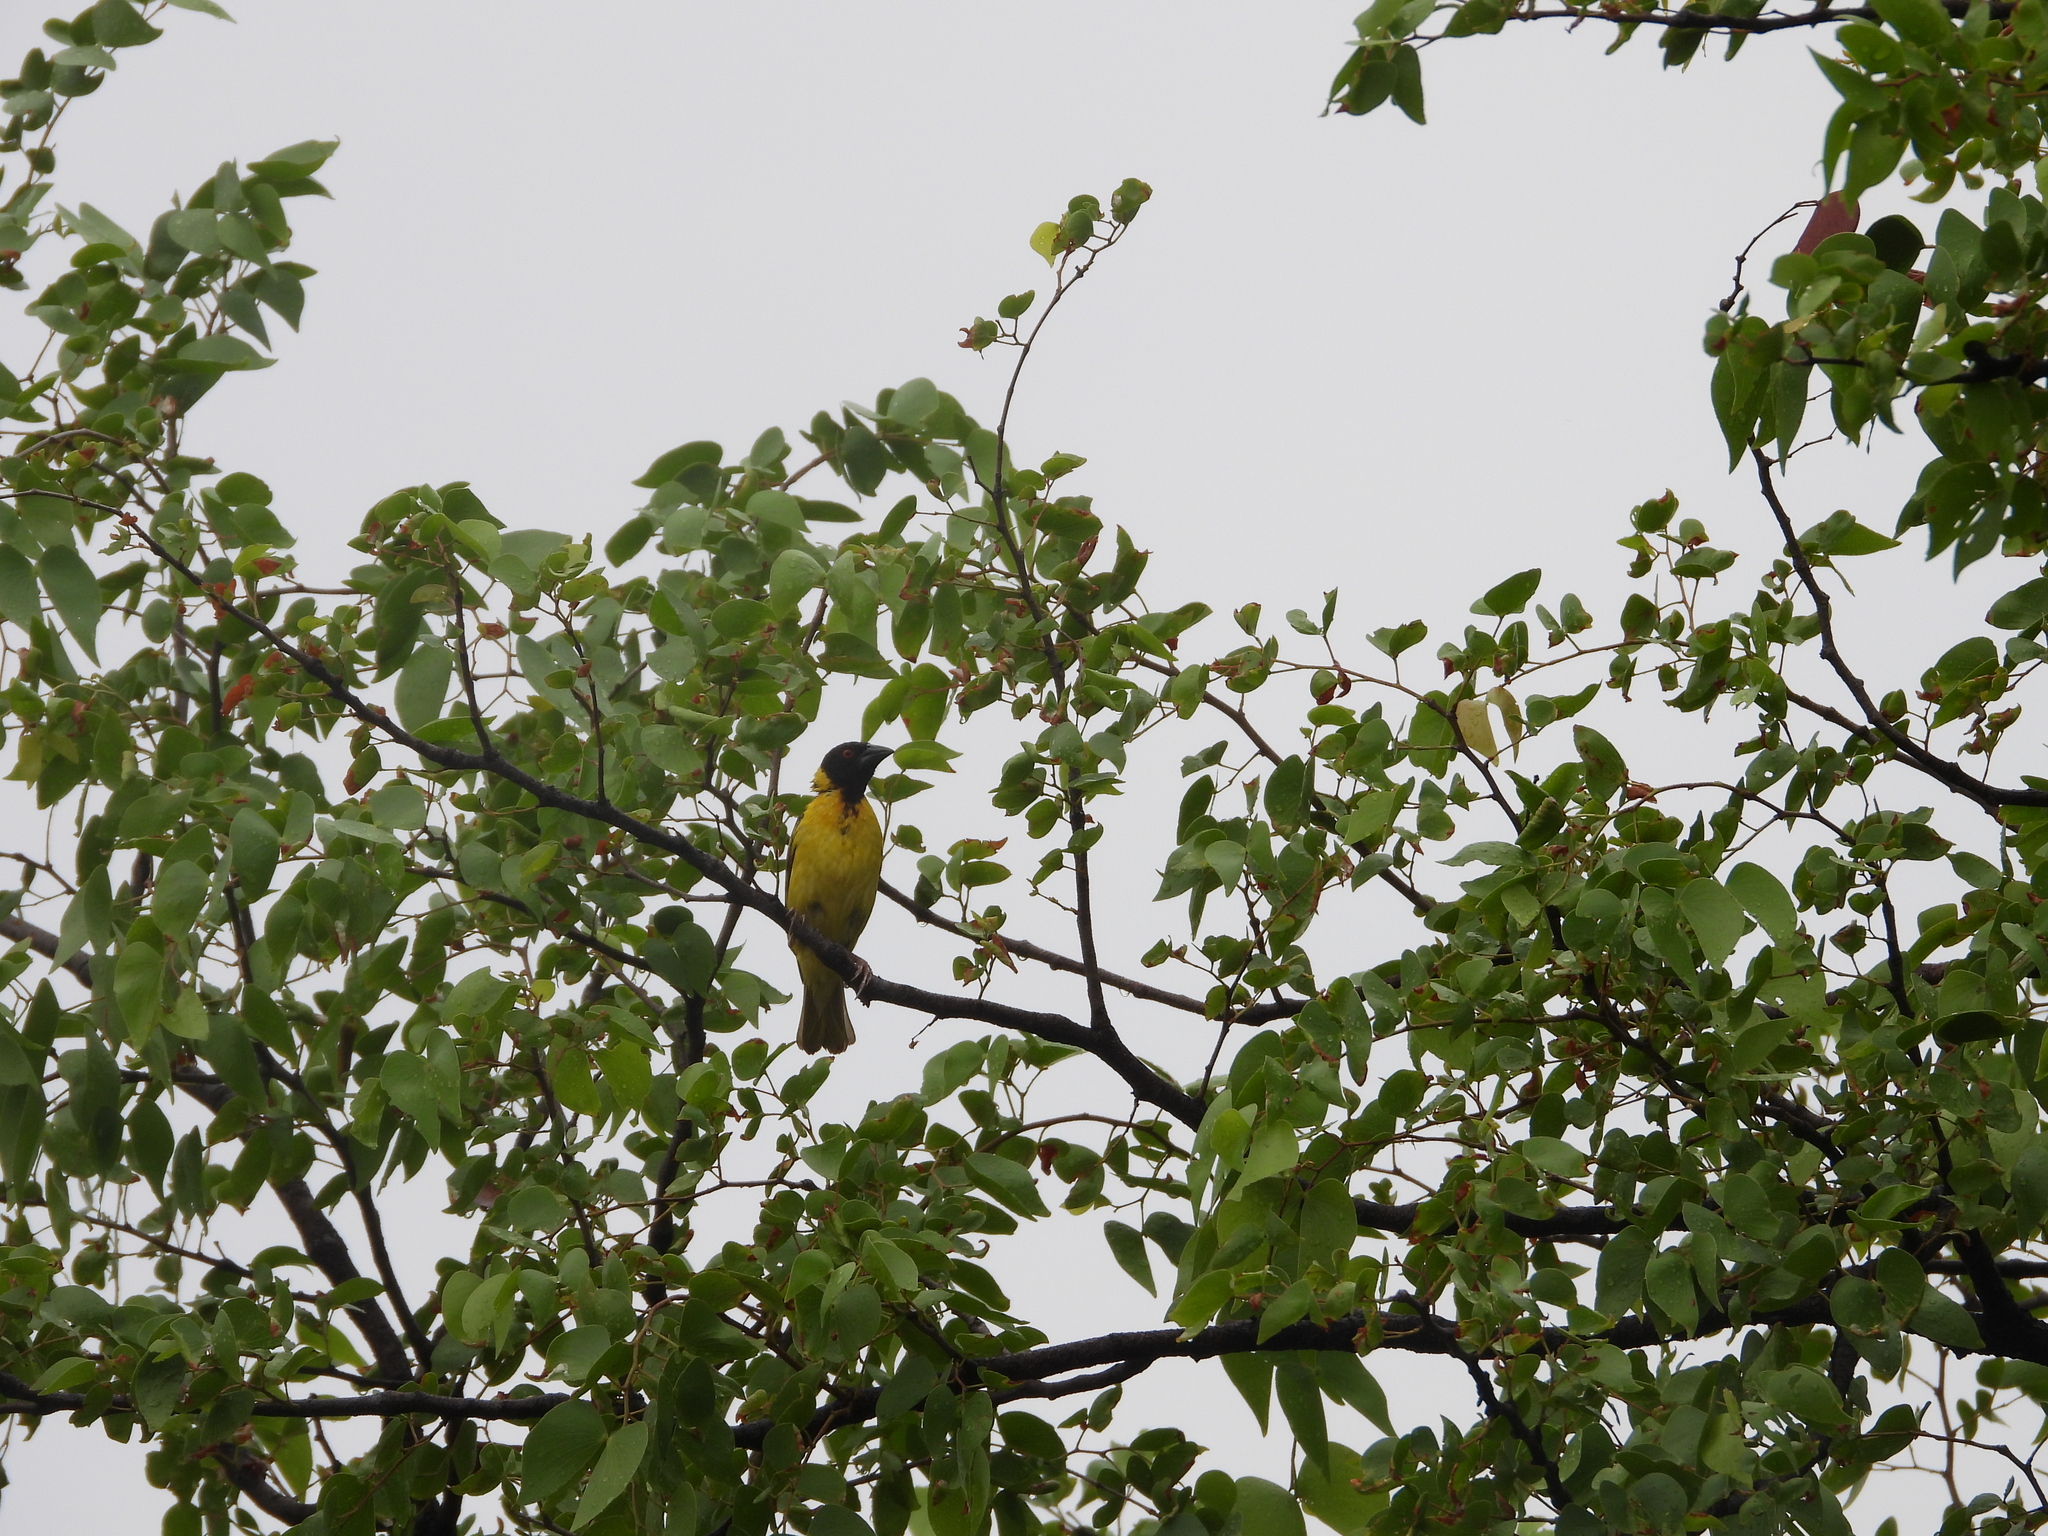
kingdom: Animalia
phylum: Chordata
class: Aves
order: Passeriformes
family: Ploceidae
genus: Ploceus
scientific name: Ploceus cucullatus
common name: Village weaver
